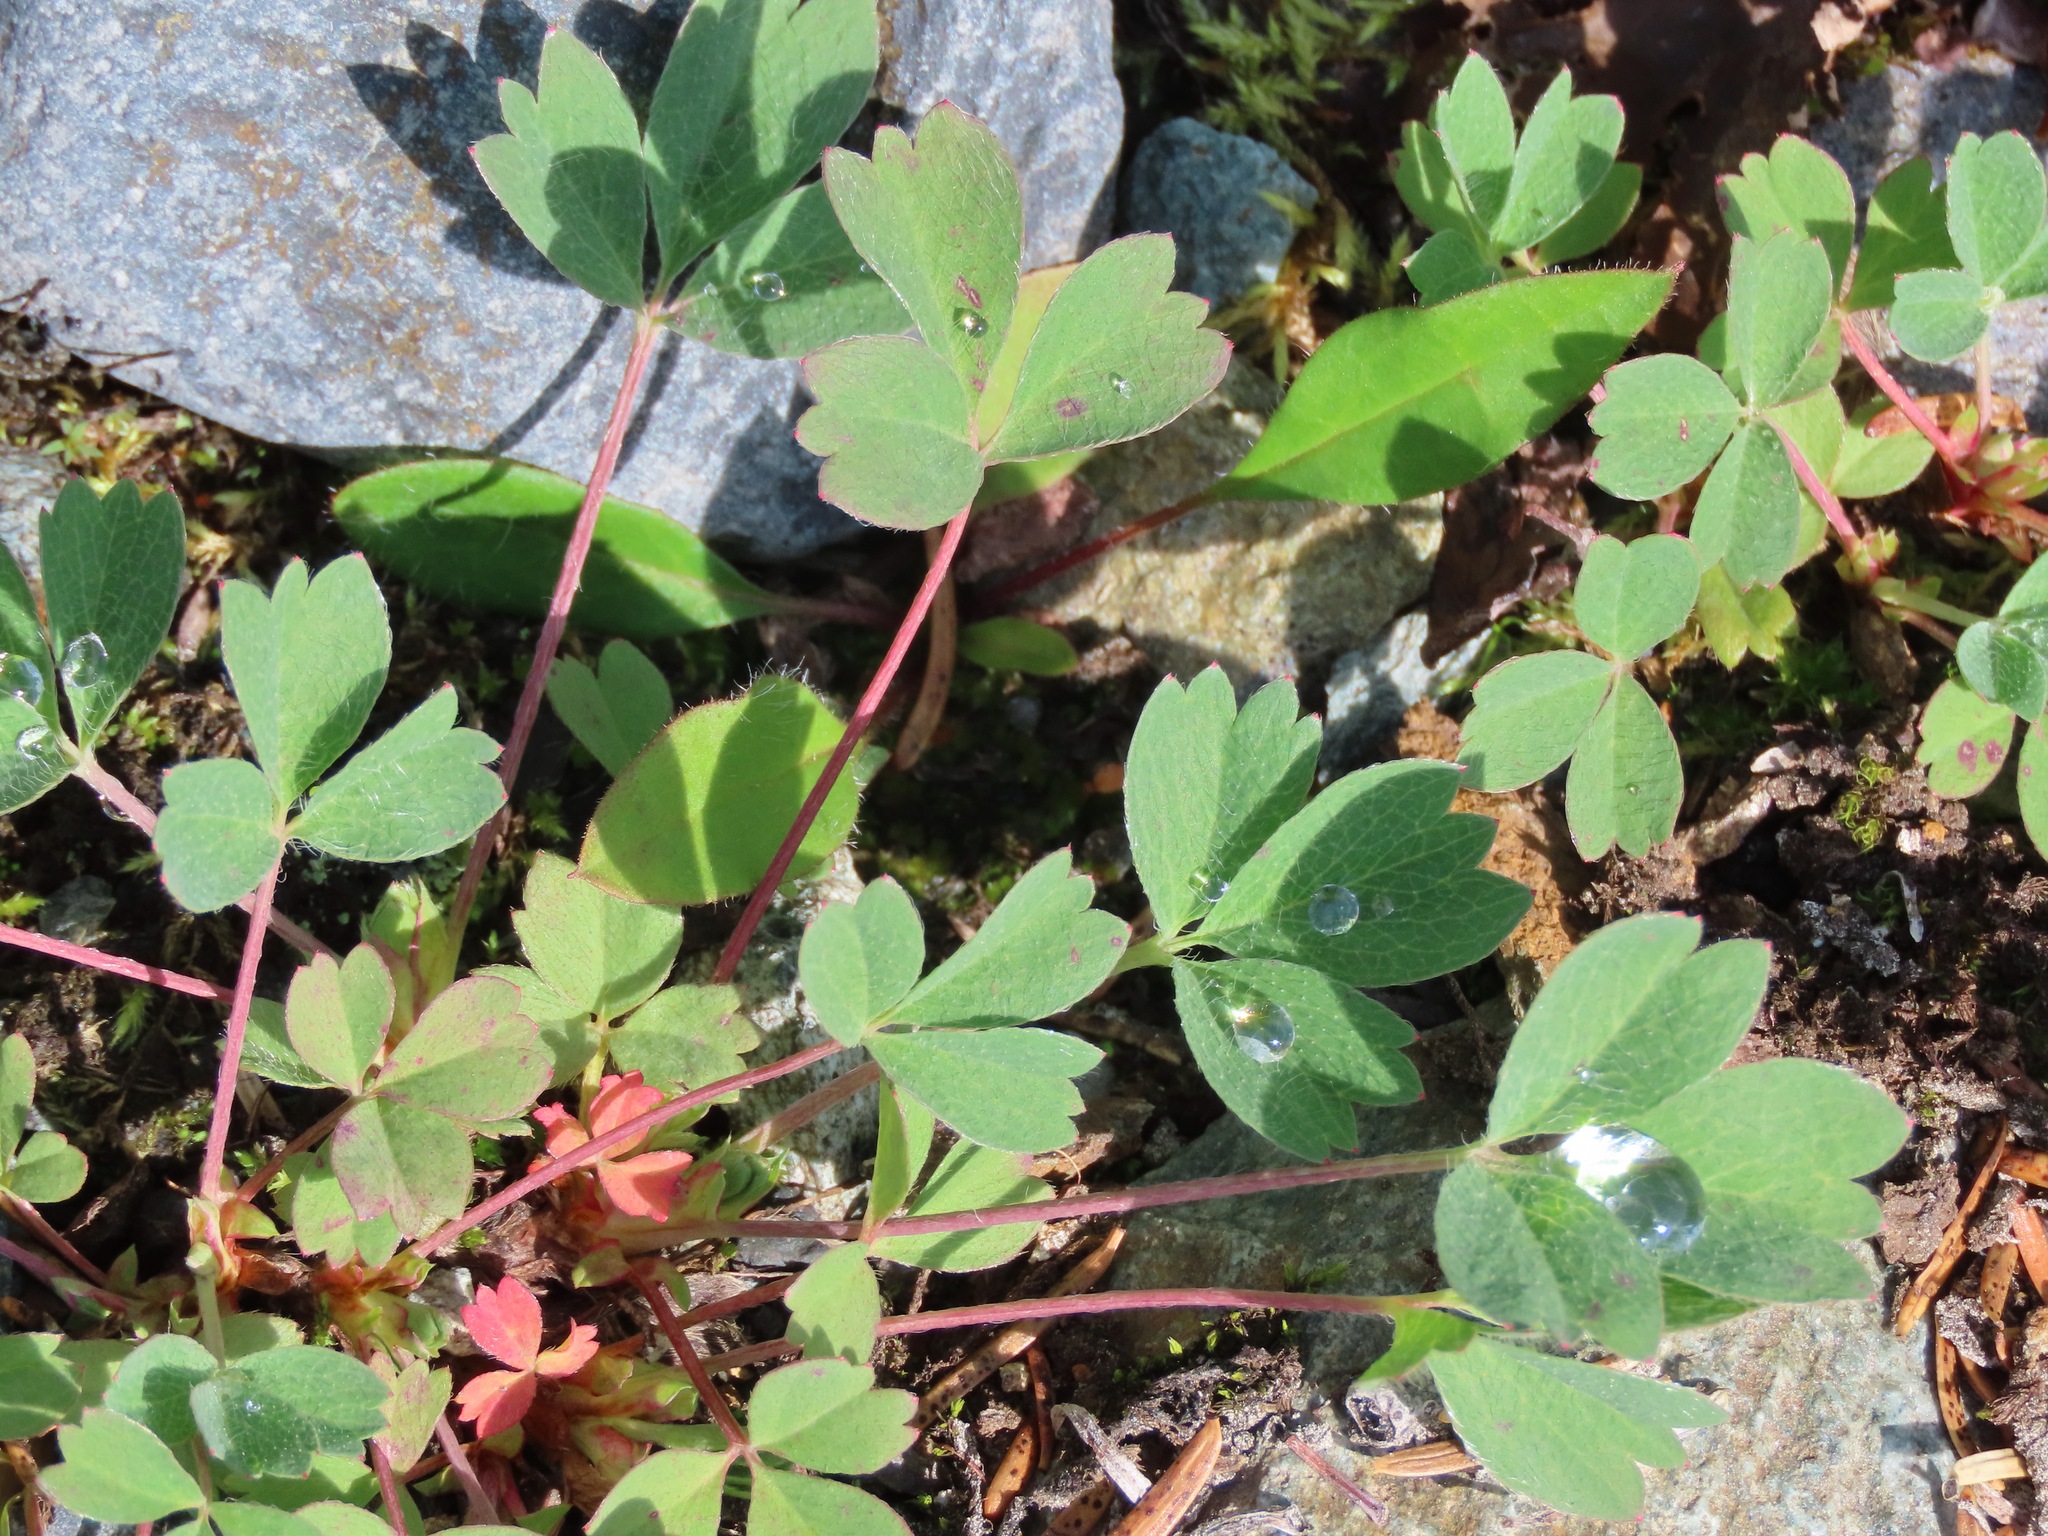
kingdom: Plantae
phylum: Tracheophyta
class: Magnoliopsida
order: Rosales
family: Rosaceae
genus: Sibbaldia
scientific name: Sibbaldia procumbens
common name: Creeping sibbaldia
